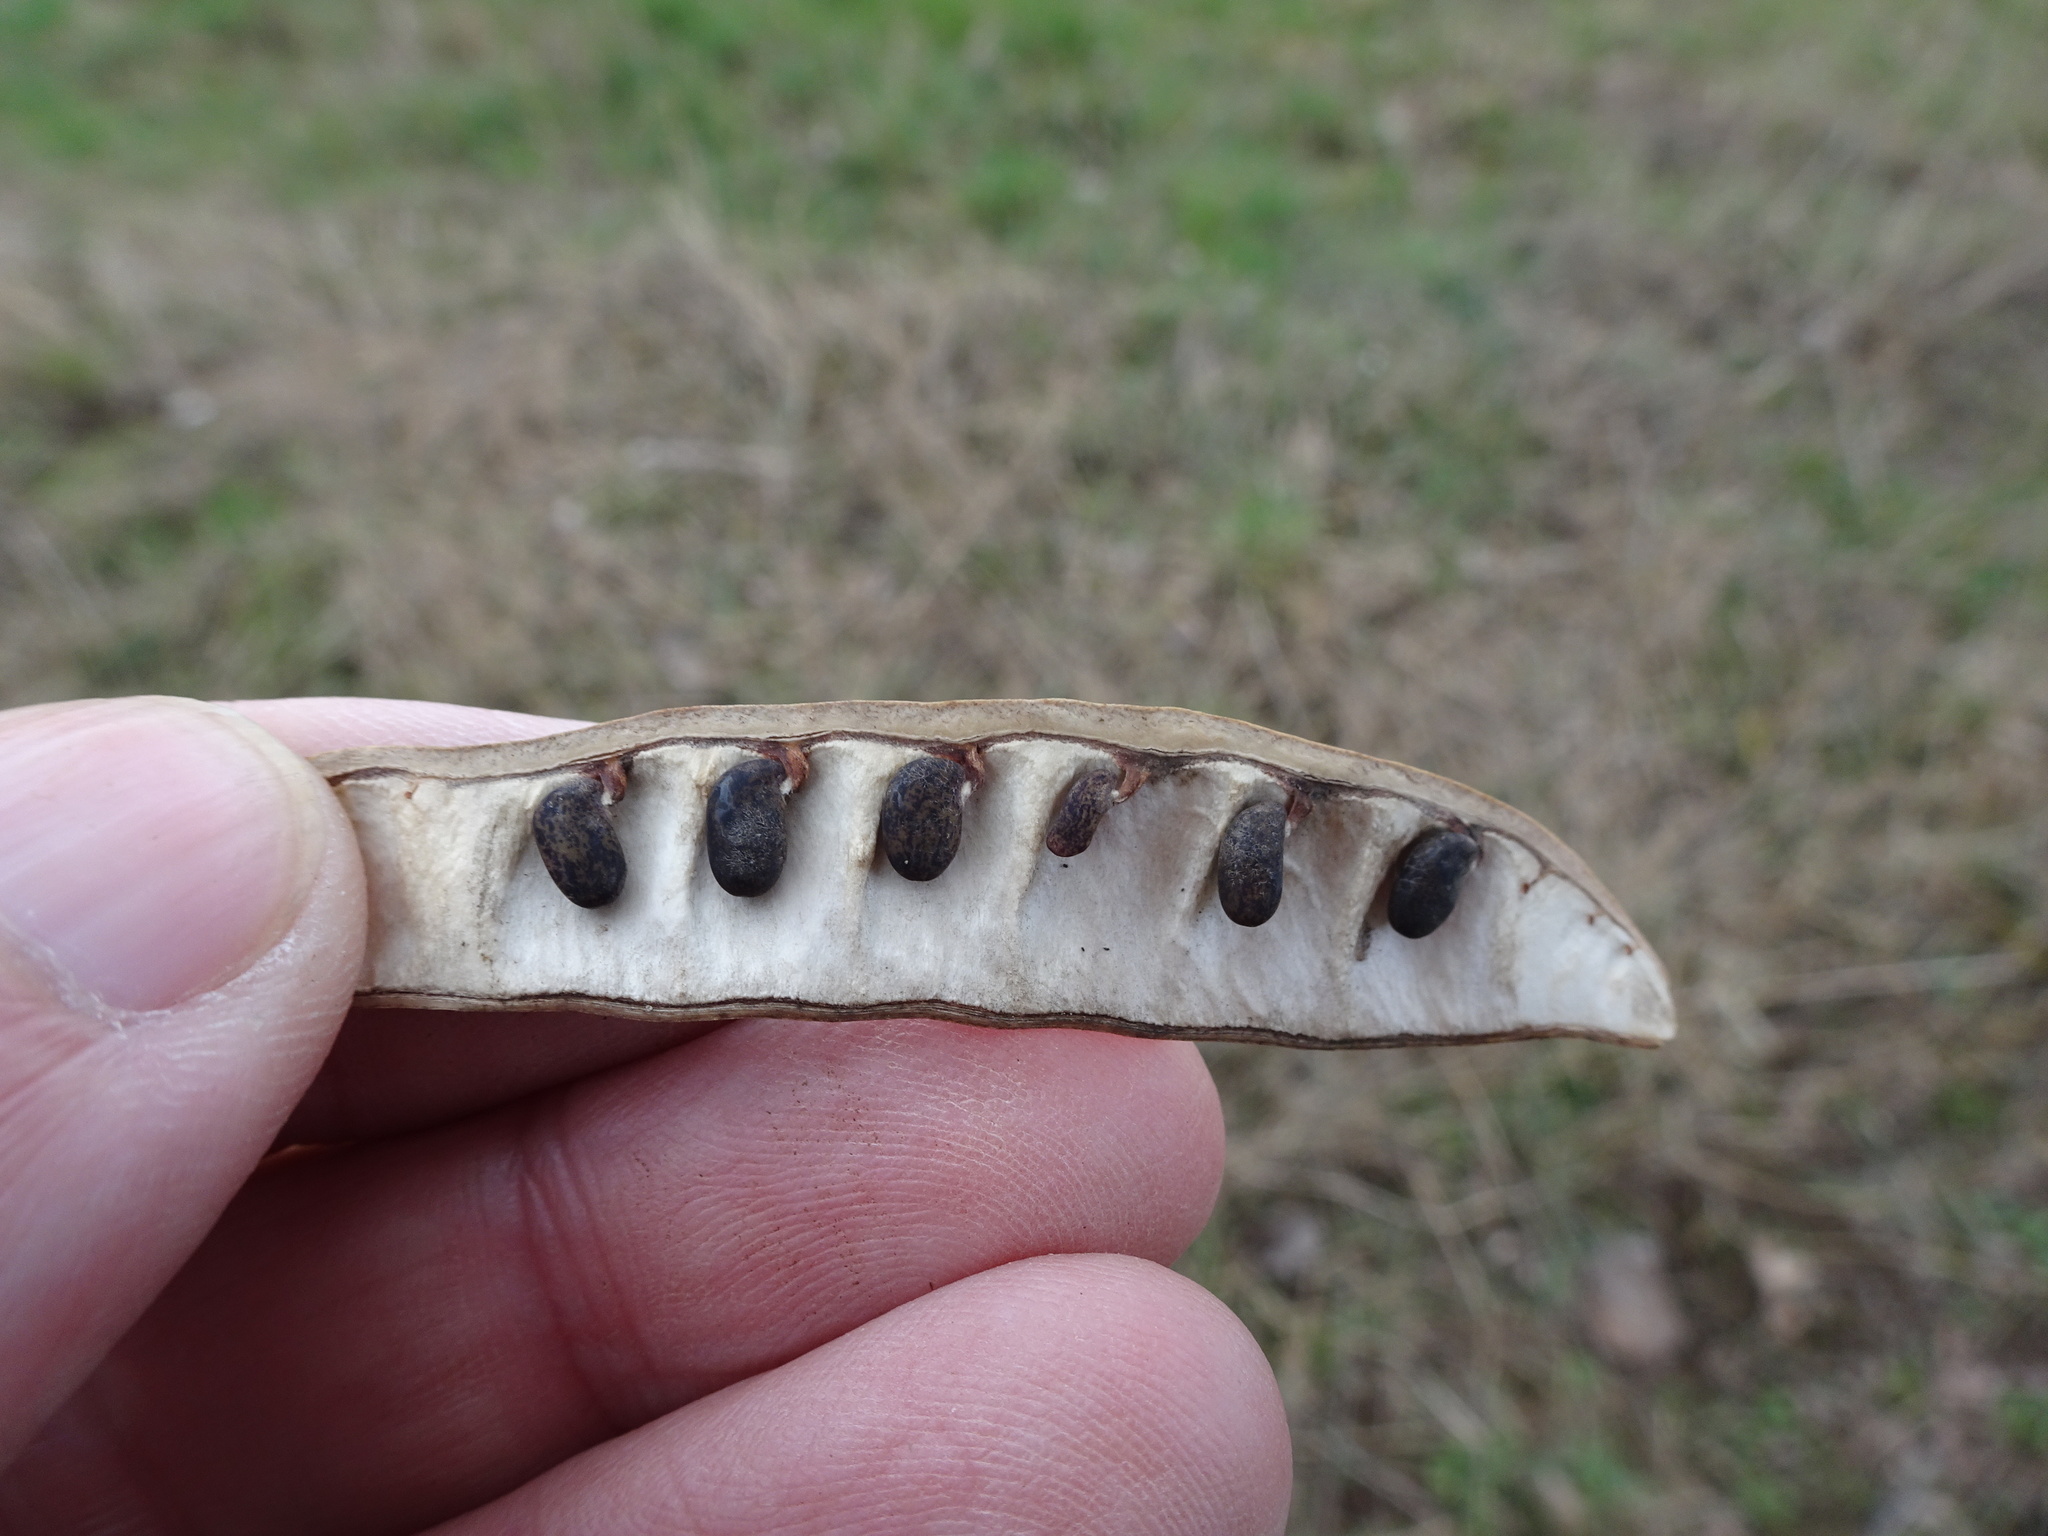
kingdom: Plantae
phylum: Tracheophyta
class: Magnoliopsida
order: Fabales
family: Fabaceae
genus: Robinia
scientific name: Robinia pseudoacacia
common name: Black locust
